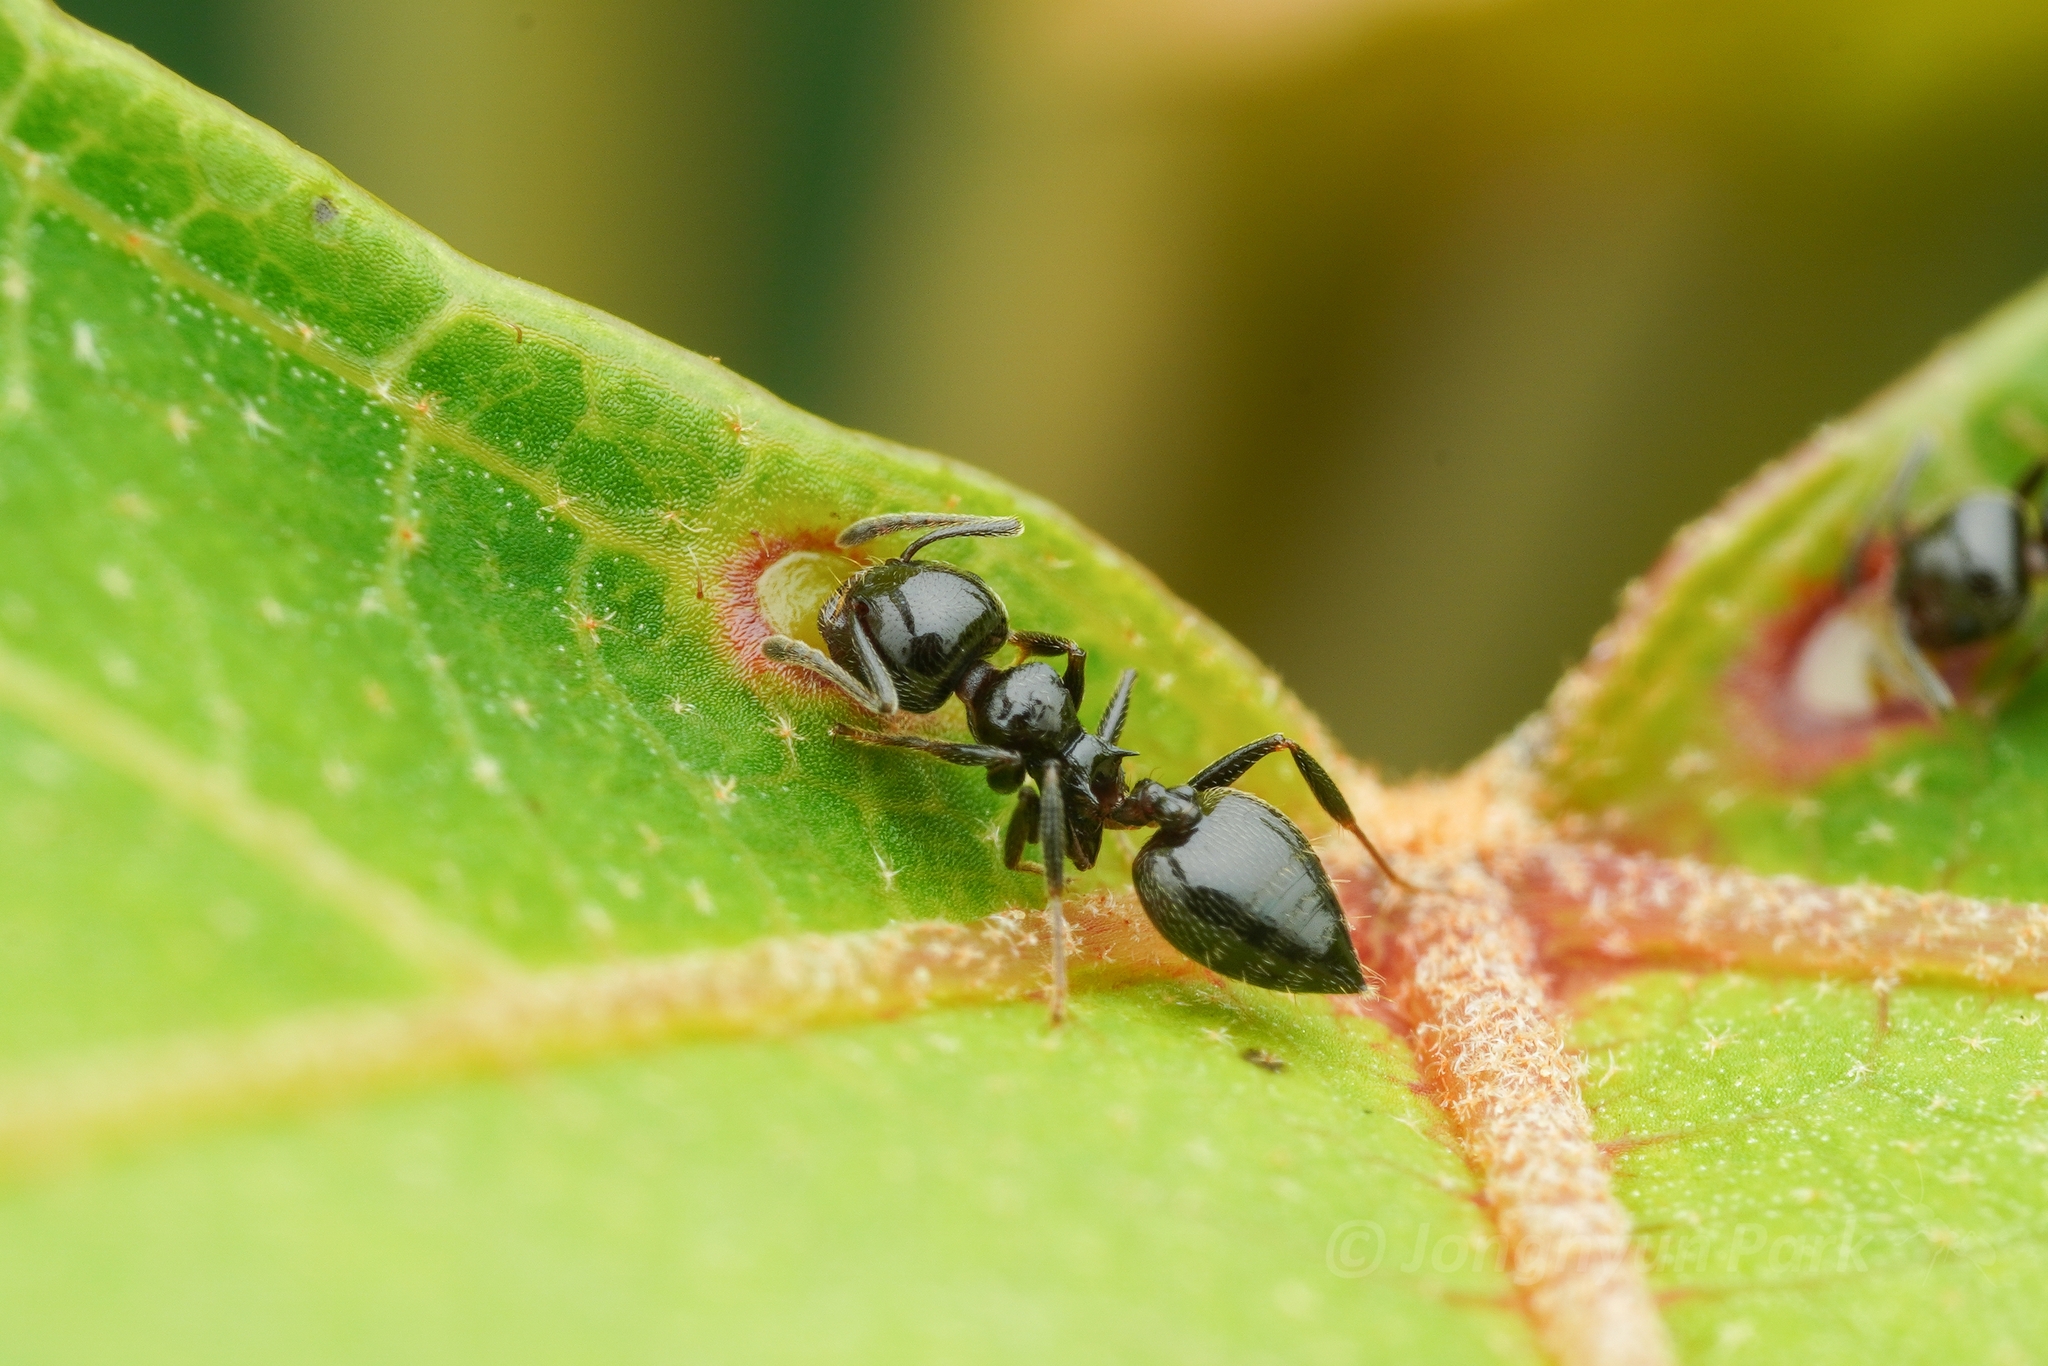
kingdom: Animalia
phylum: Arthropoda
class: Insecta
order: Hymenoptera
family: Formicidae
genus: Crematogaster
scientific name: Crematogaster nawai
